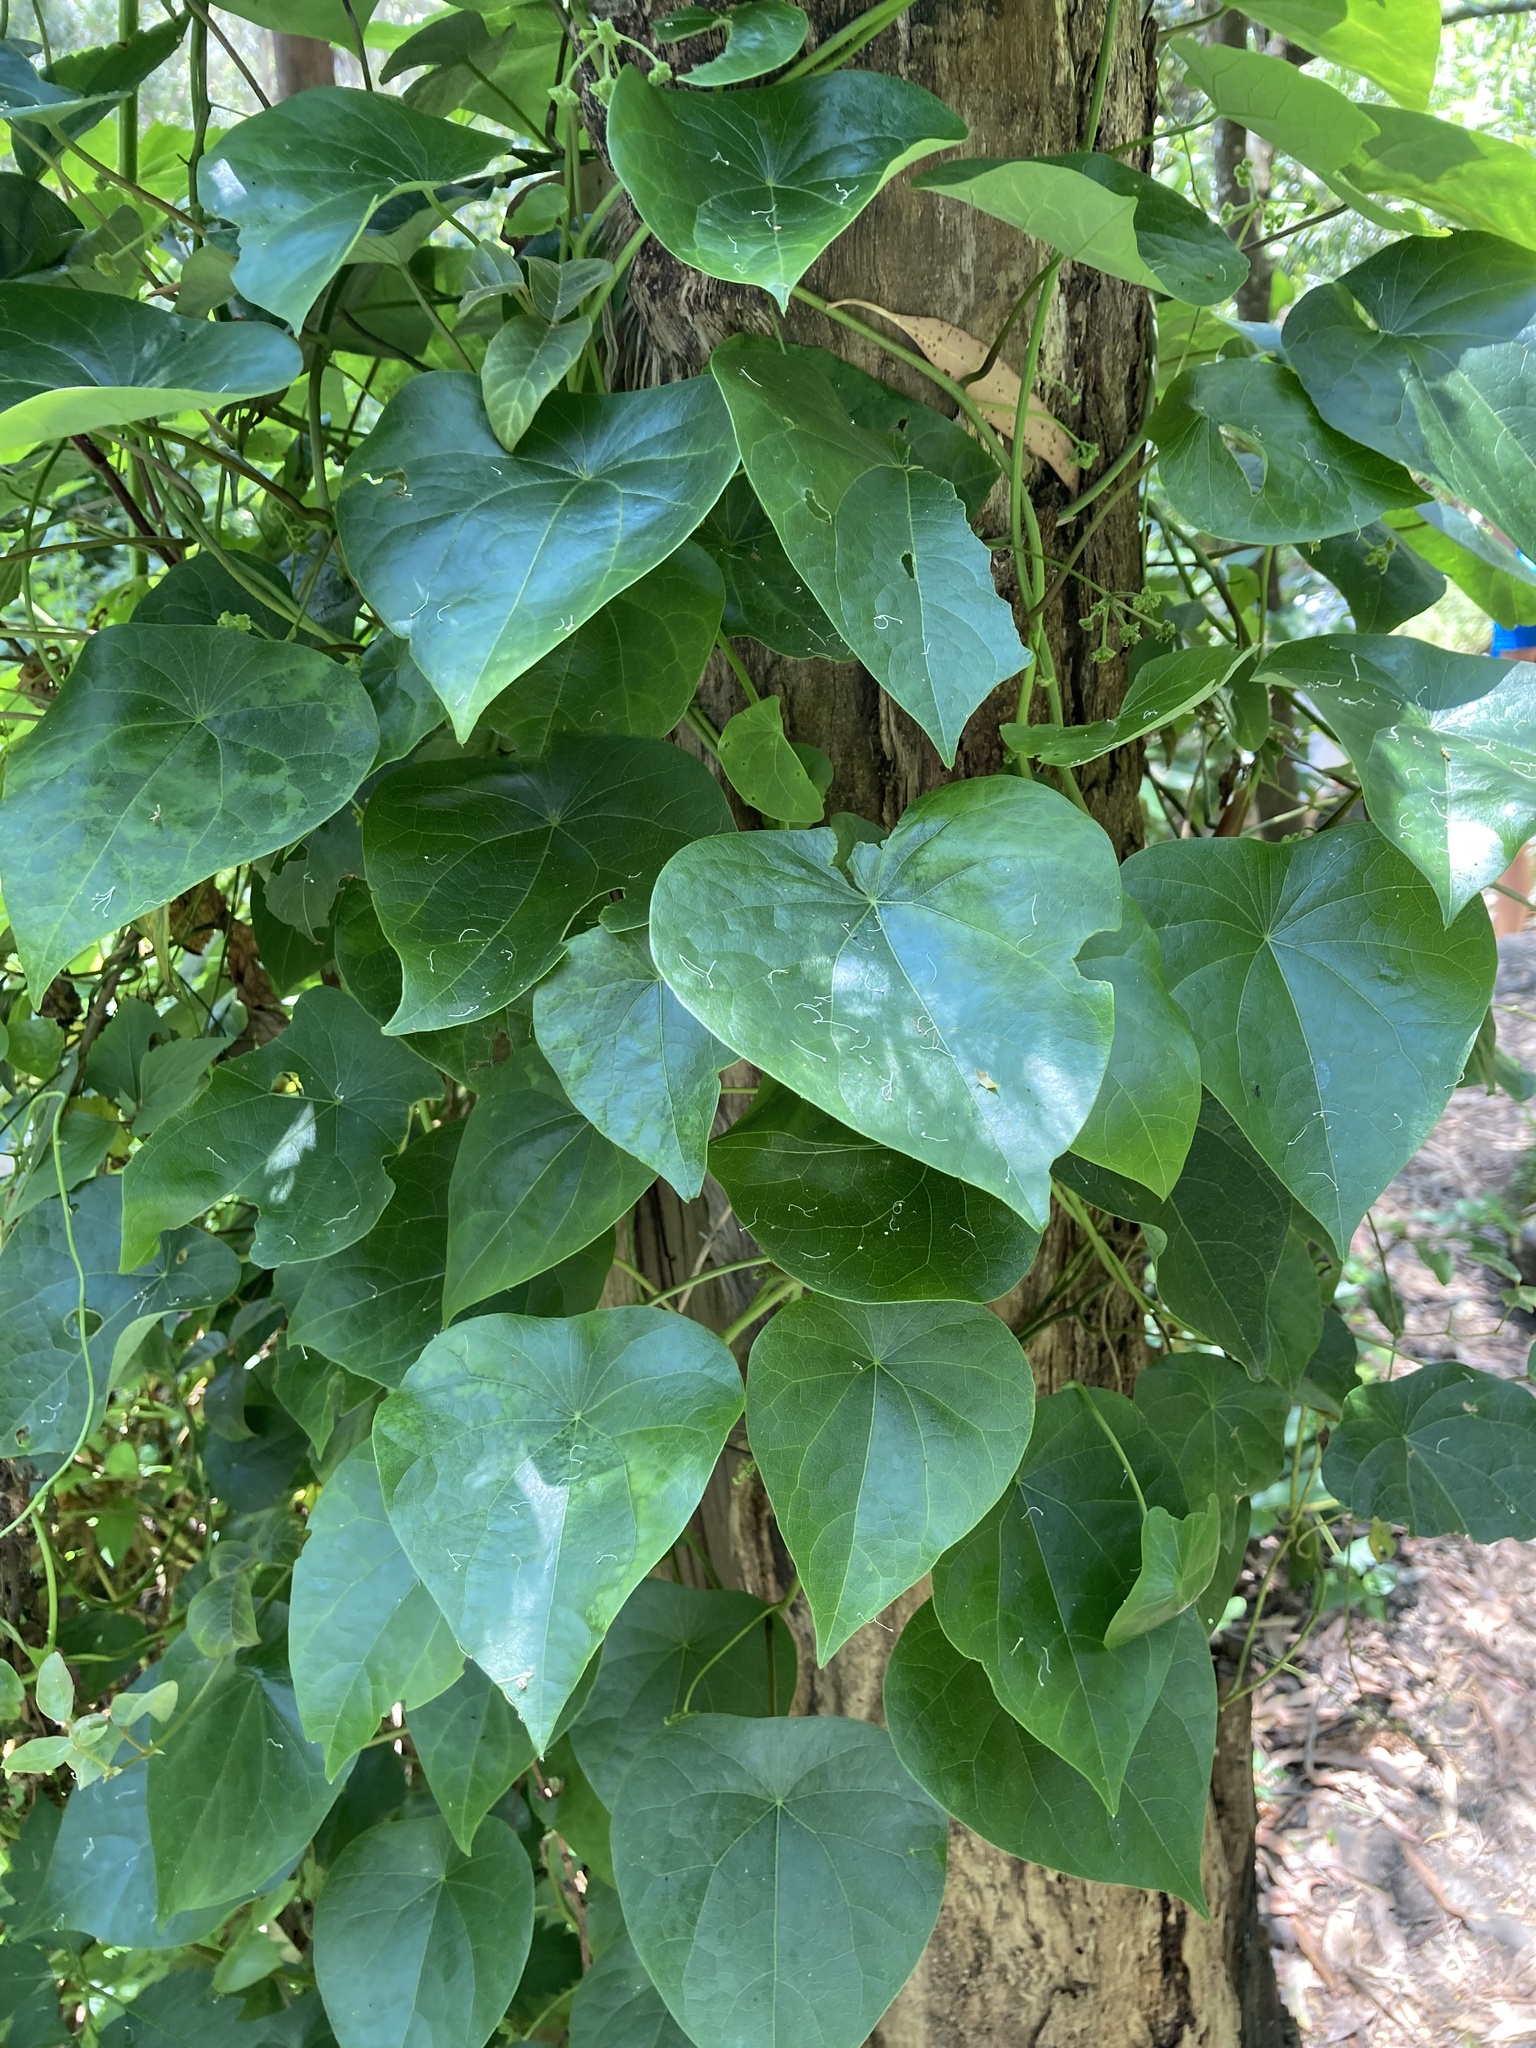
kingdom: Plantae
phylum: Tracheophyta
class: Magnoliopsida
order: Ranunculales
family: Menispermaceae
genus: Stephania
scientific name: Stephania japonica
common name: Snake vine
